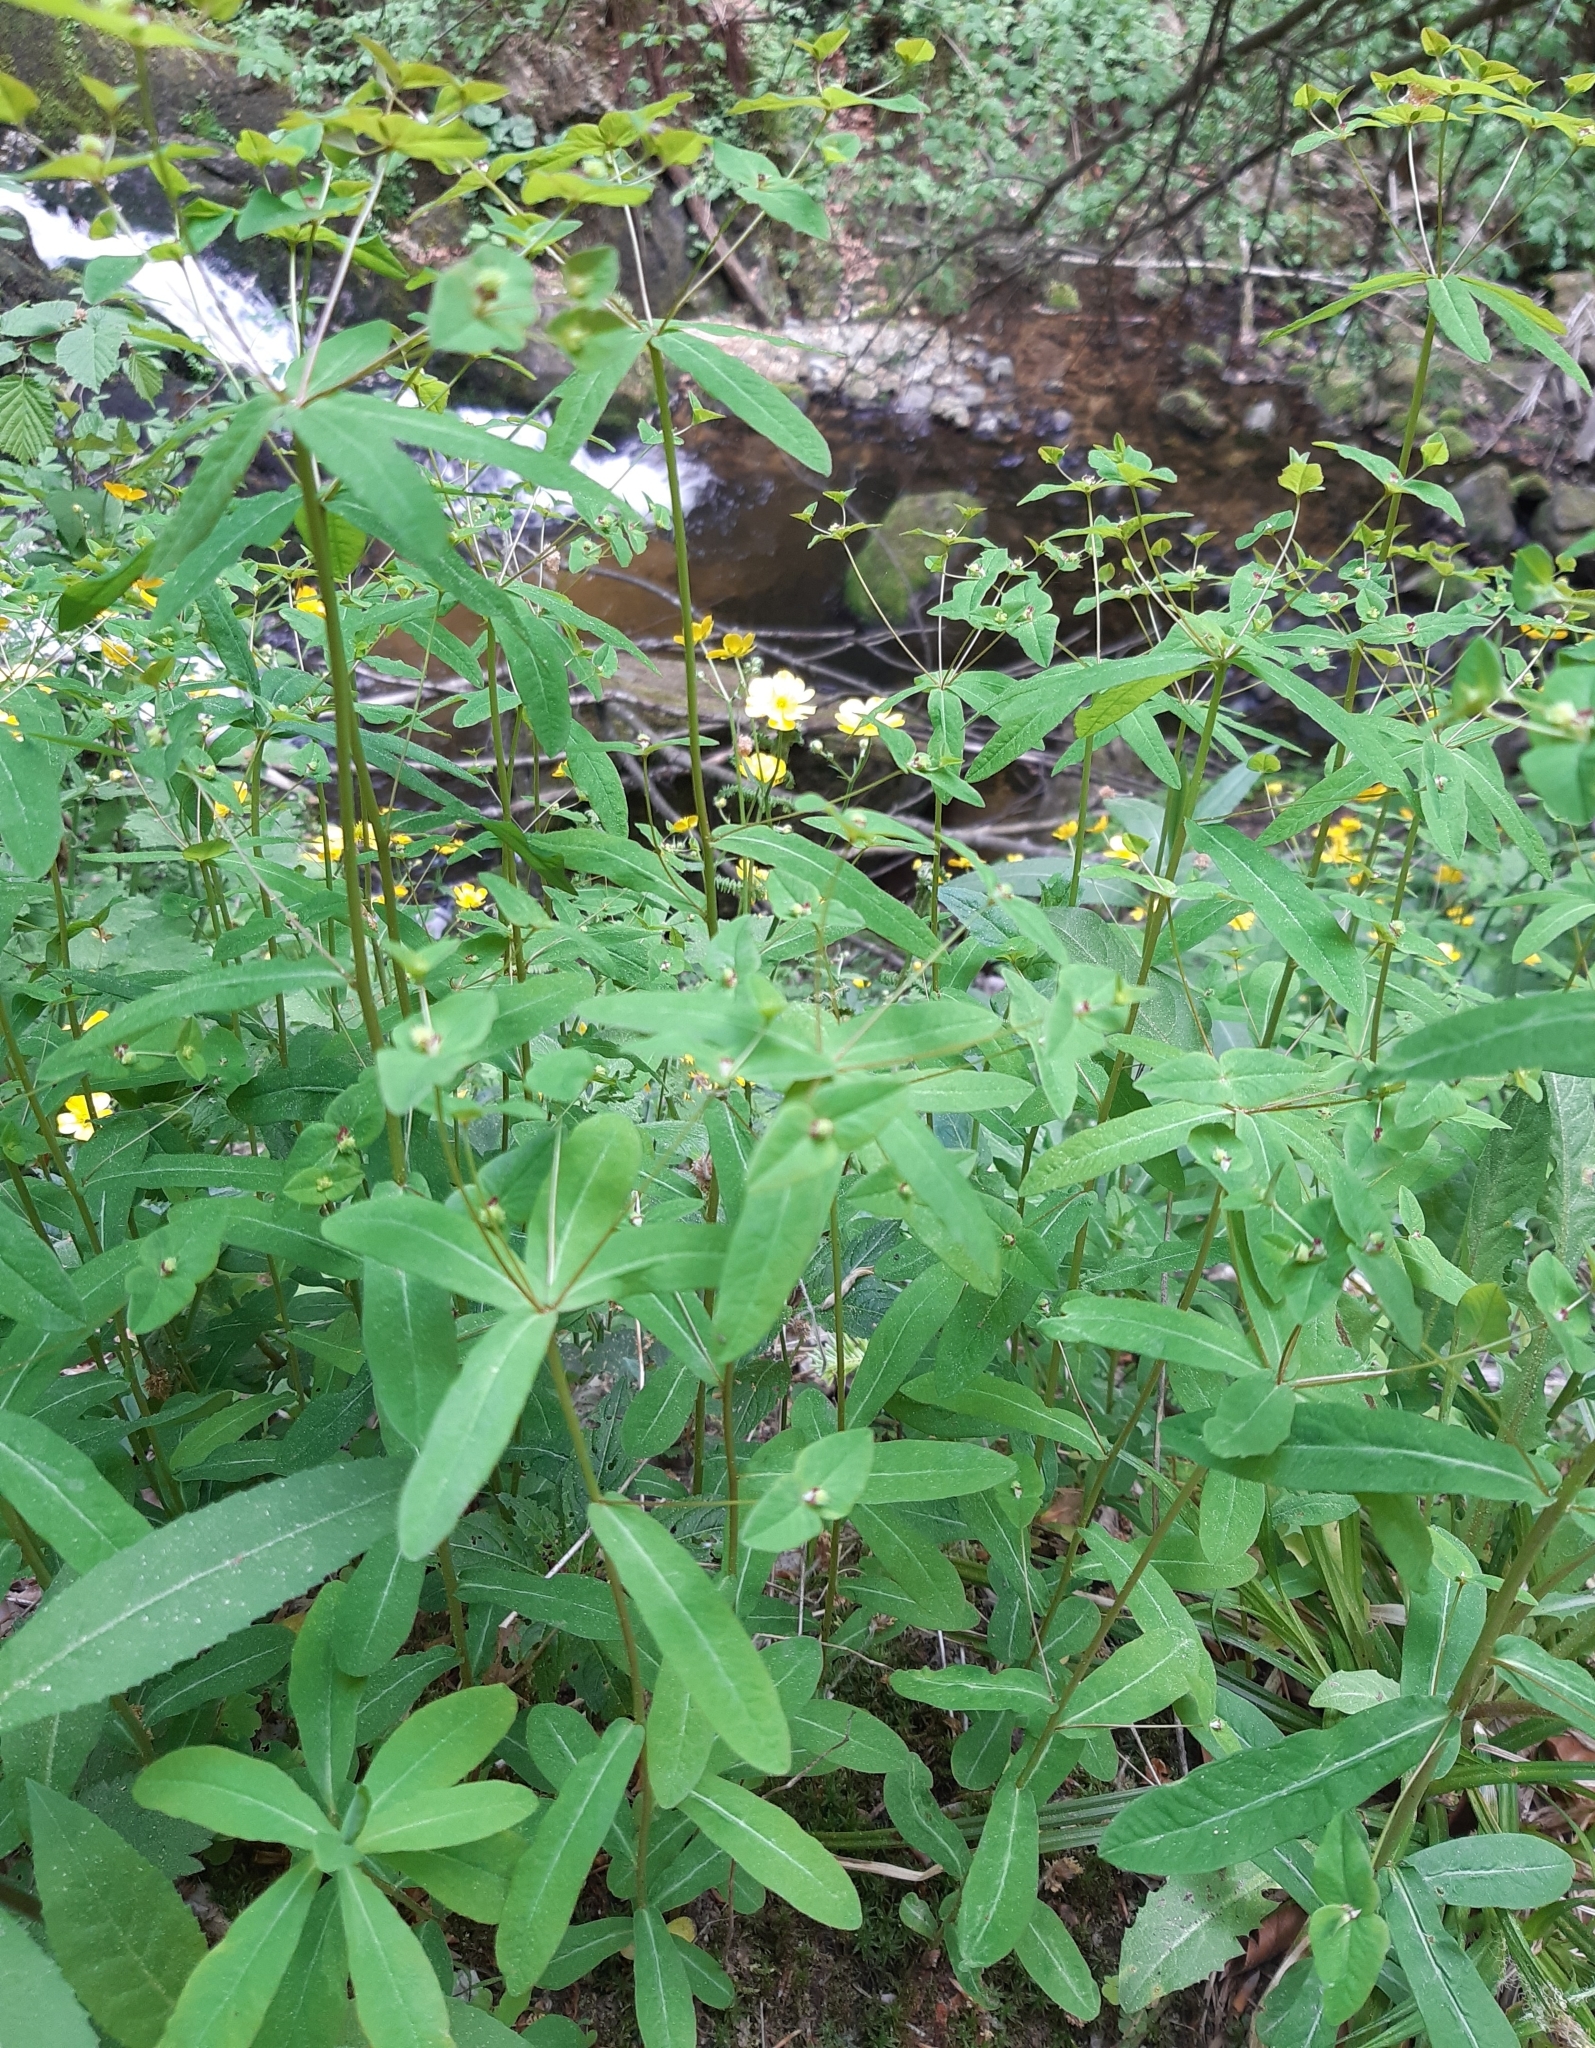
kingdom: Plantae
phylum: Tracheophyta
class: Magnoliopsida
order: Malpighiales
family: Euphorbiaceae
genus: Euphorbia
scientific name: Euphorbia dulcis
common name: Sweet spurge
